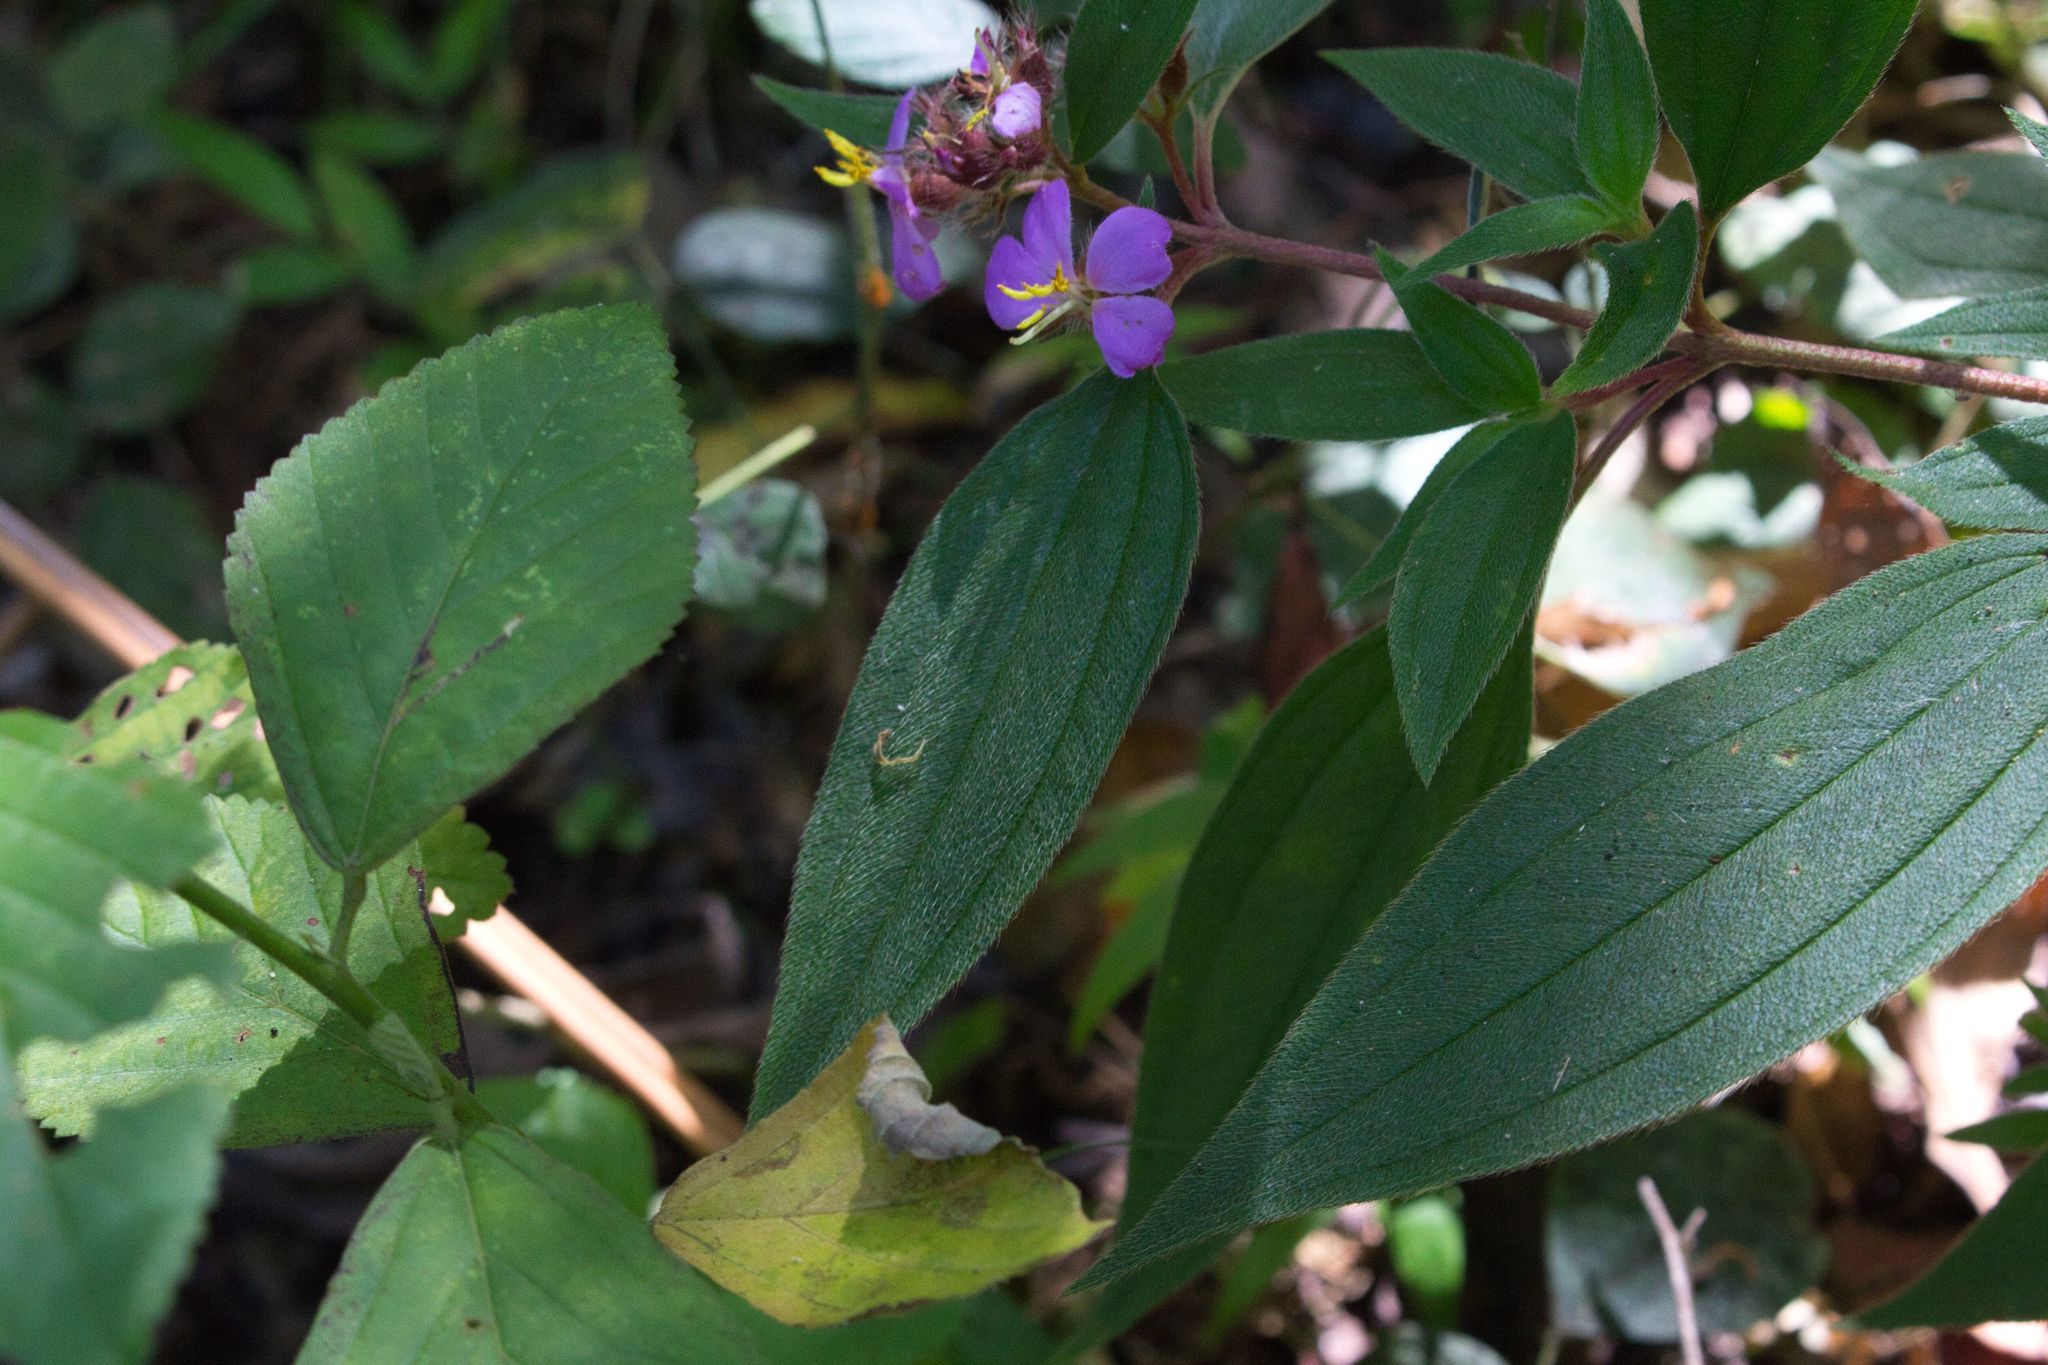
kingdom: Plantae
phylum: Tracheophyta
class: Magnoliopsida
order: Myrtales
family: Melastomataceae
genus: Chaetogastra
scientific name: Chaetogastra naudiniana
